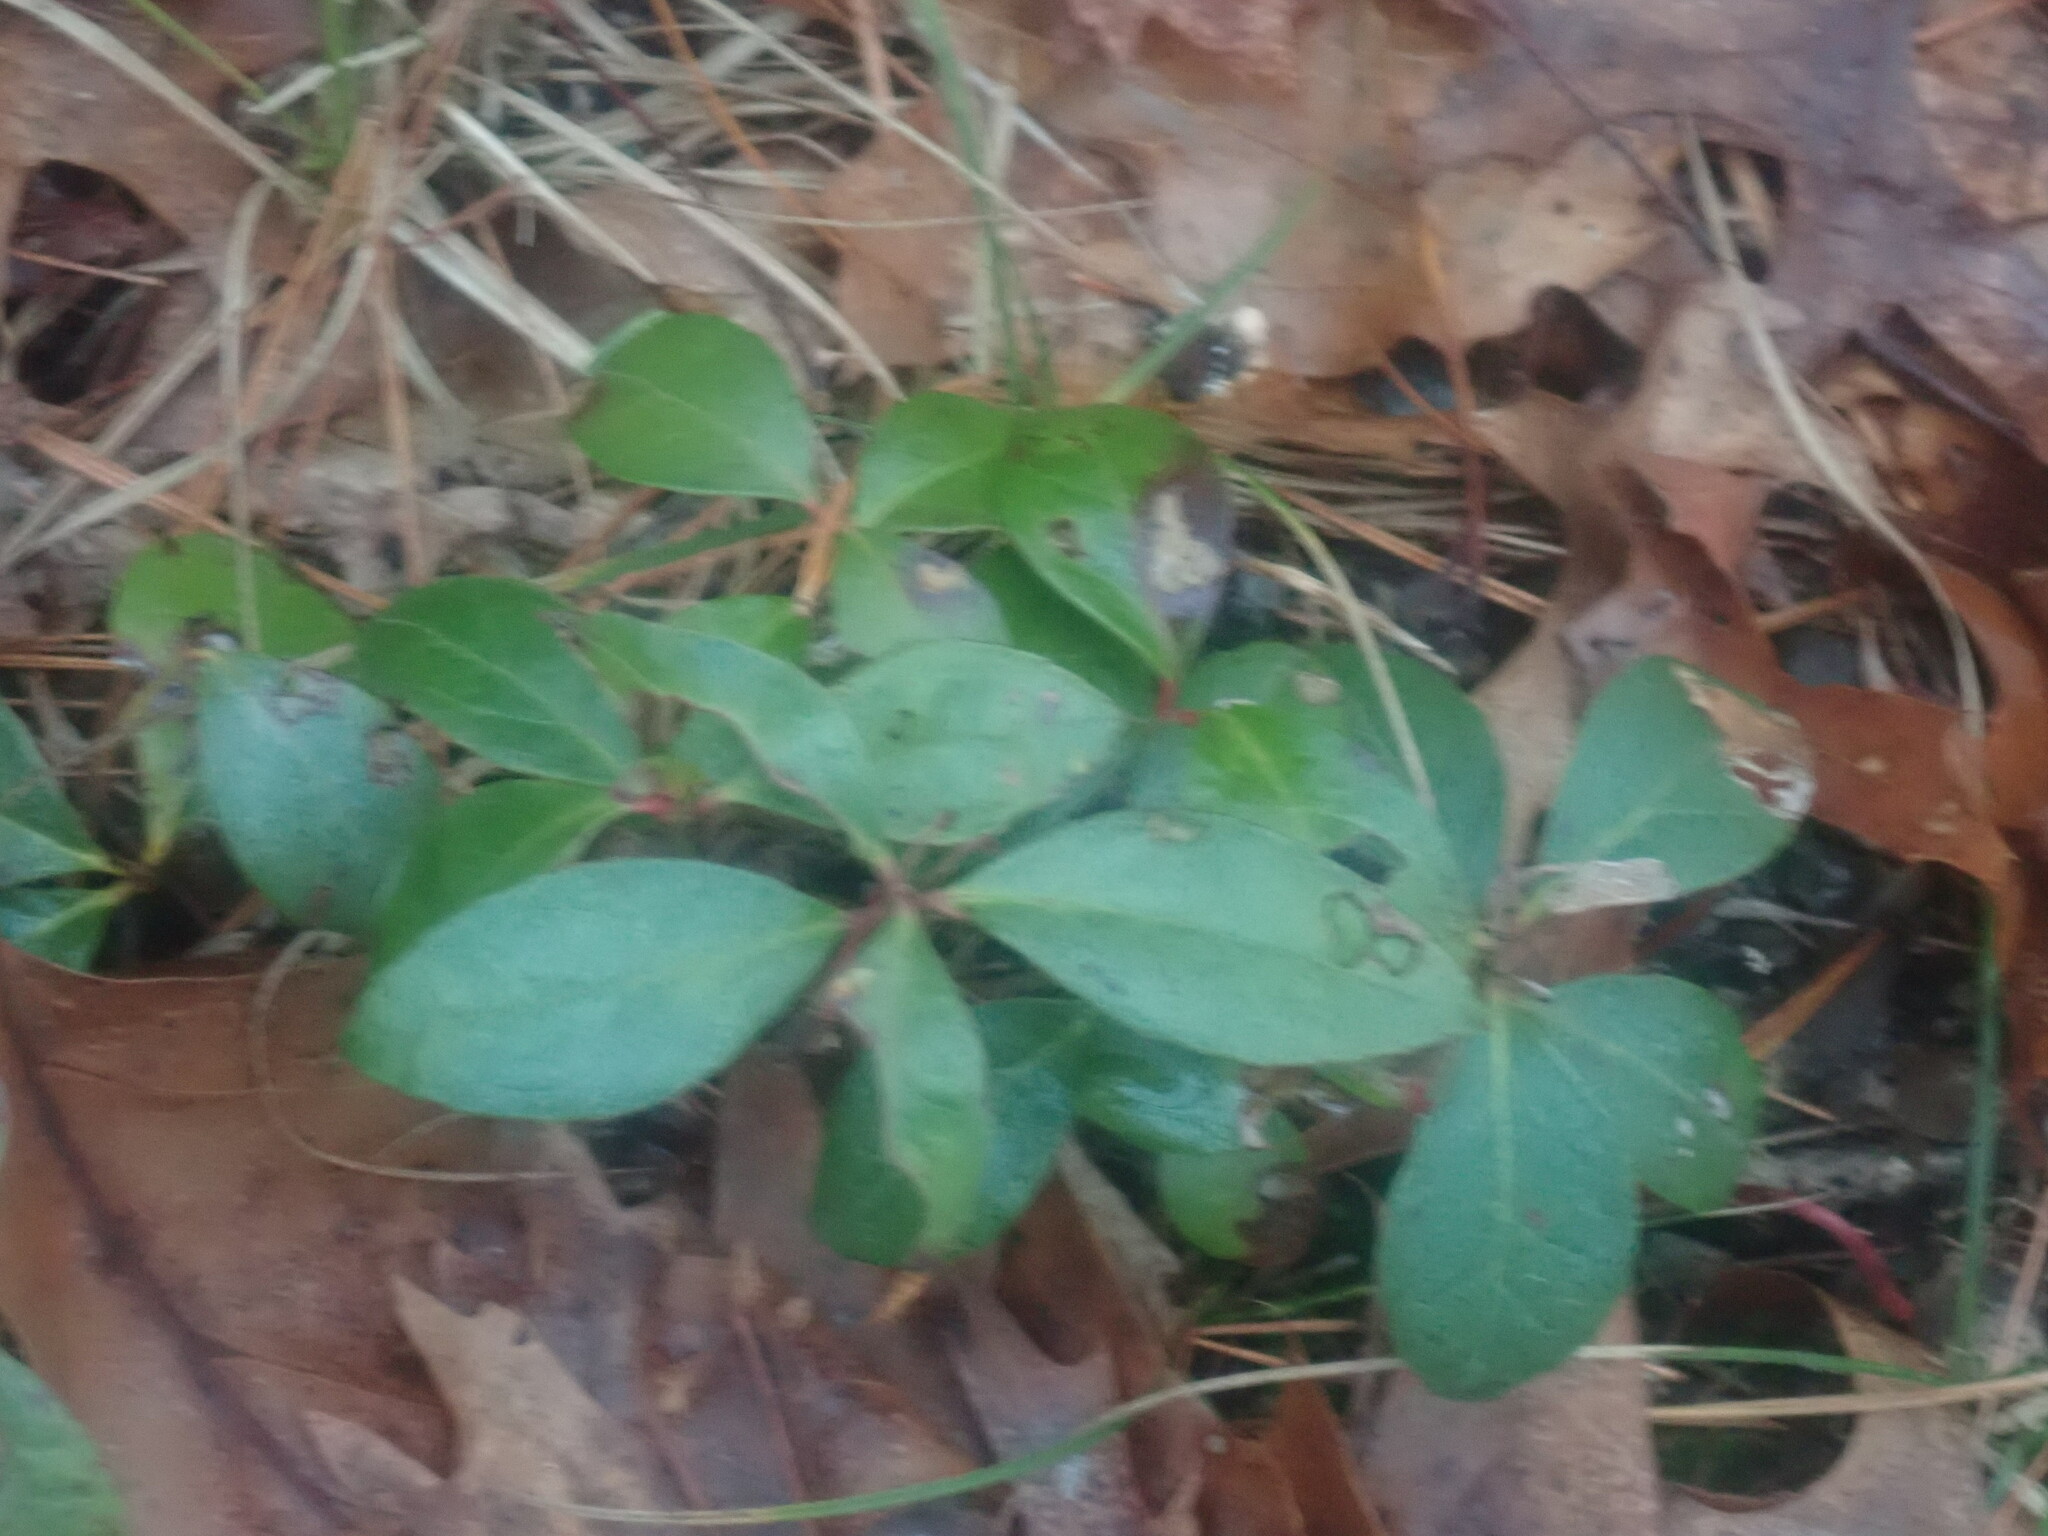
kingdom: Plantae
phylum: Tracheophyta
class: Magnoliopsida
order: Ericales
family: Ericaceae
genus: Gaultheria
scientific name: Gaultheria procumbens
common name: Checkerberry
